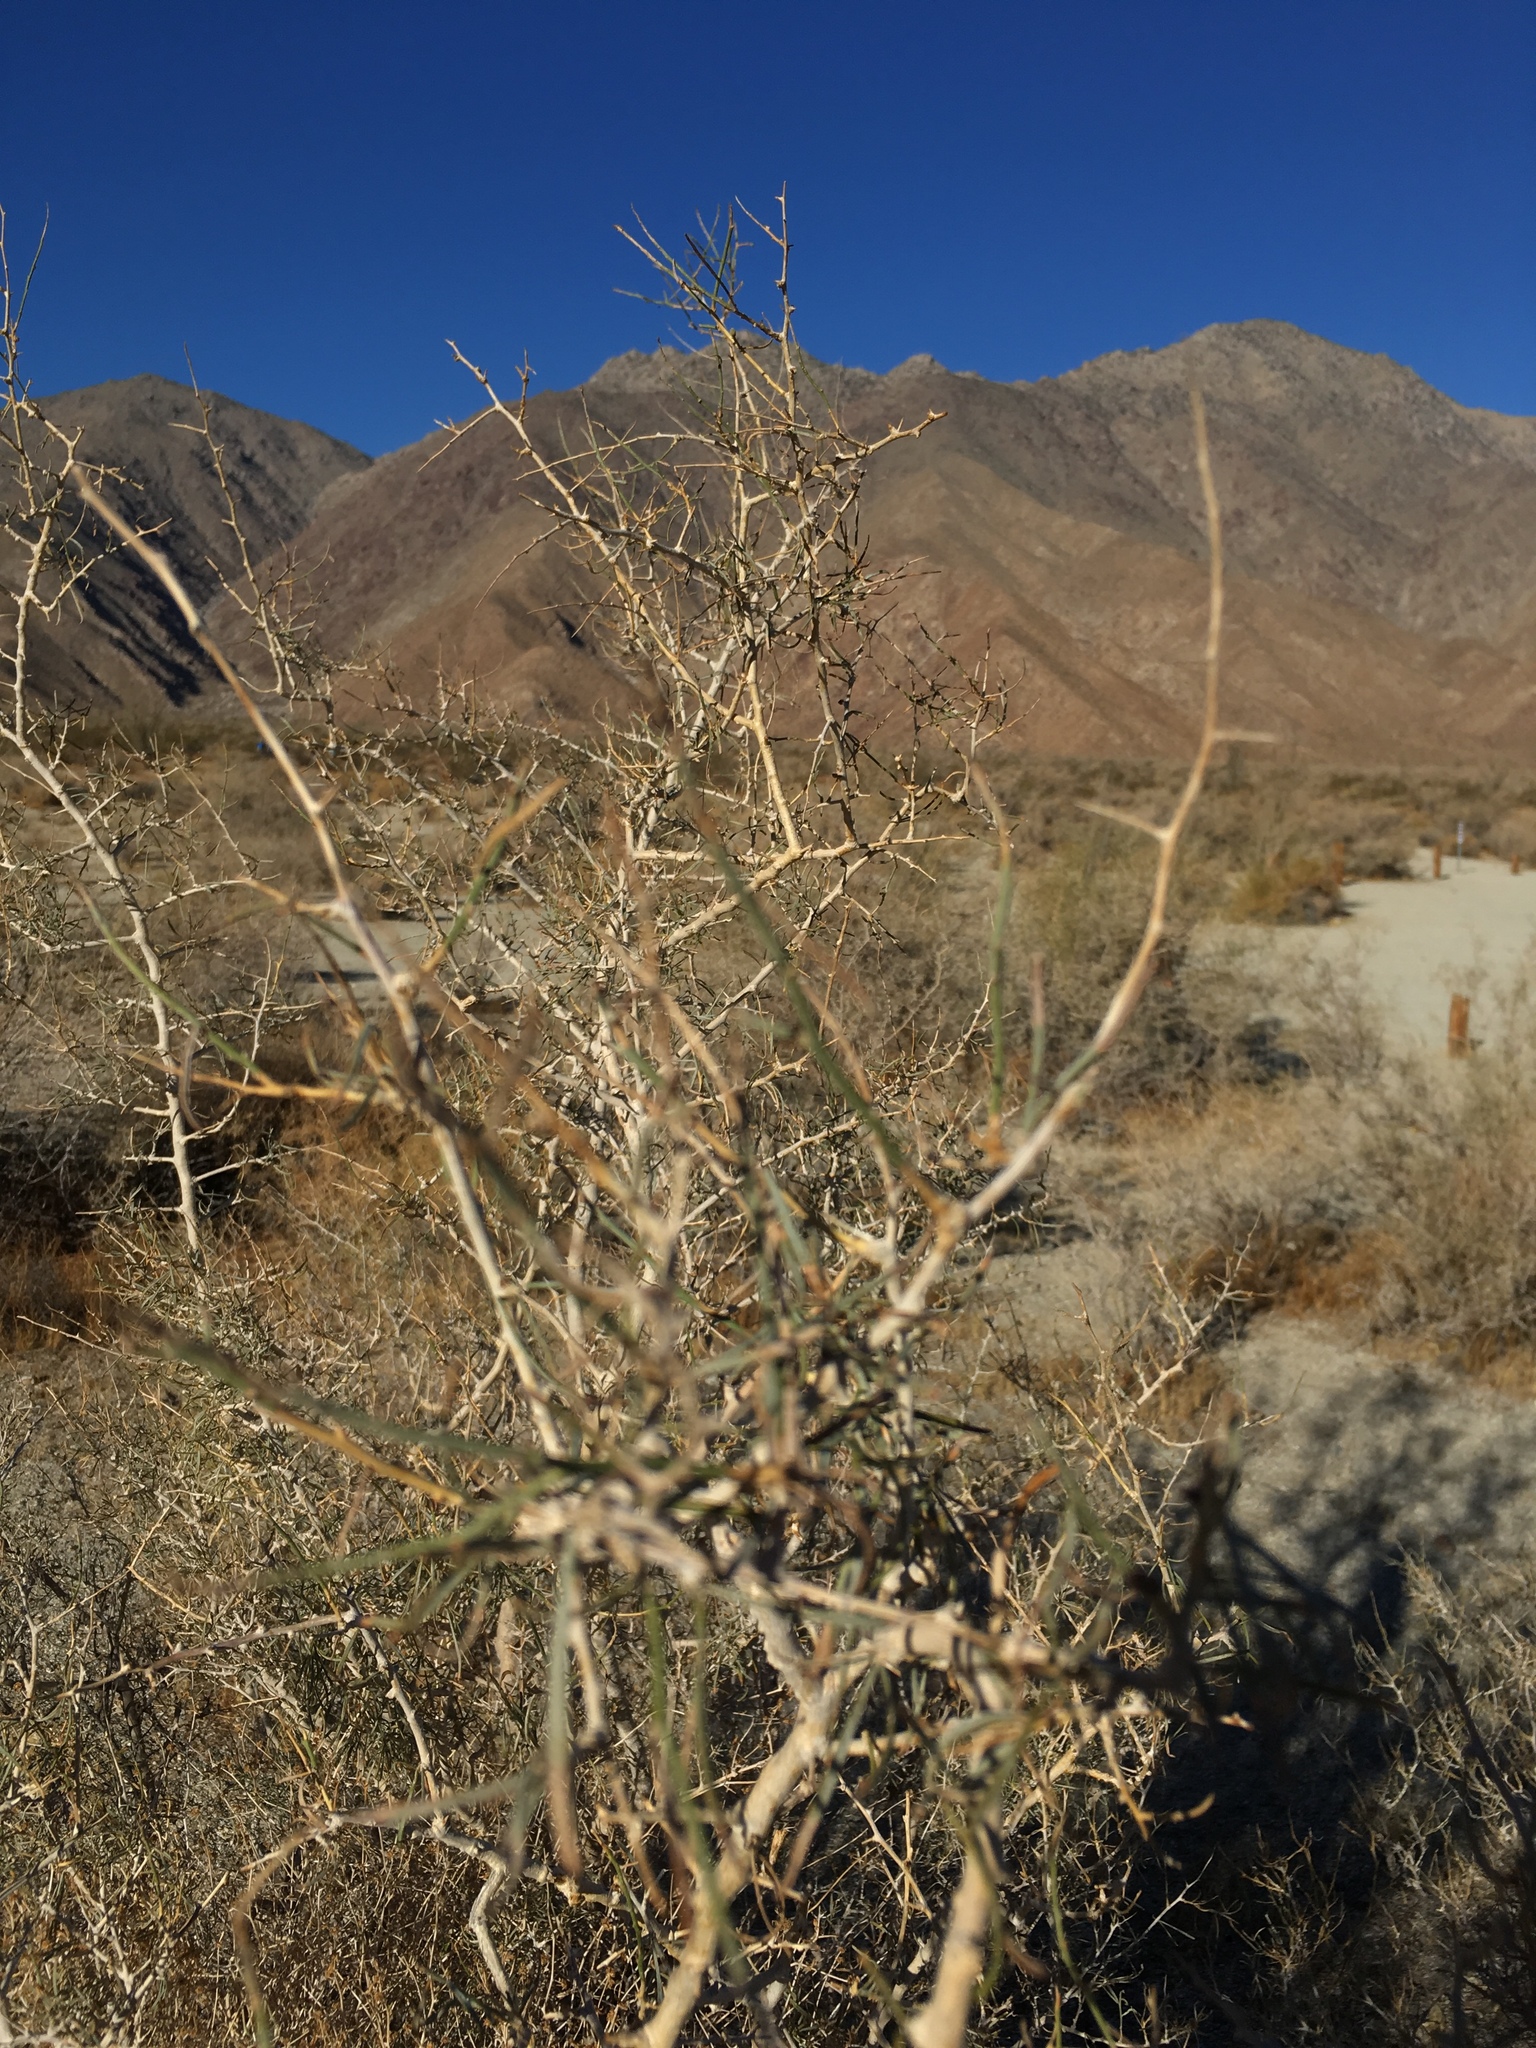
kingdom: Plantae
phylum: Tracheophyta
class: Magnoliopsida
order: Fabales
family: Fabaceae
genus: Psorothamnus
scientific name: Psorothamnus schottii
